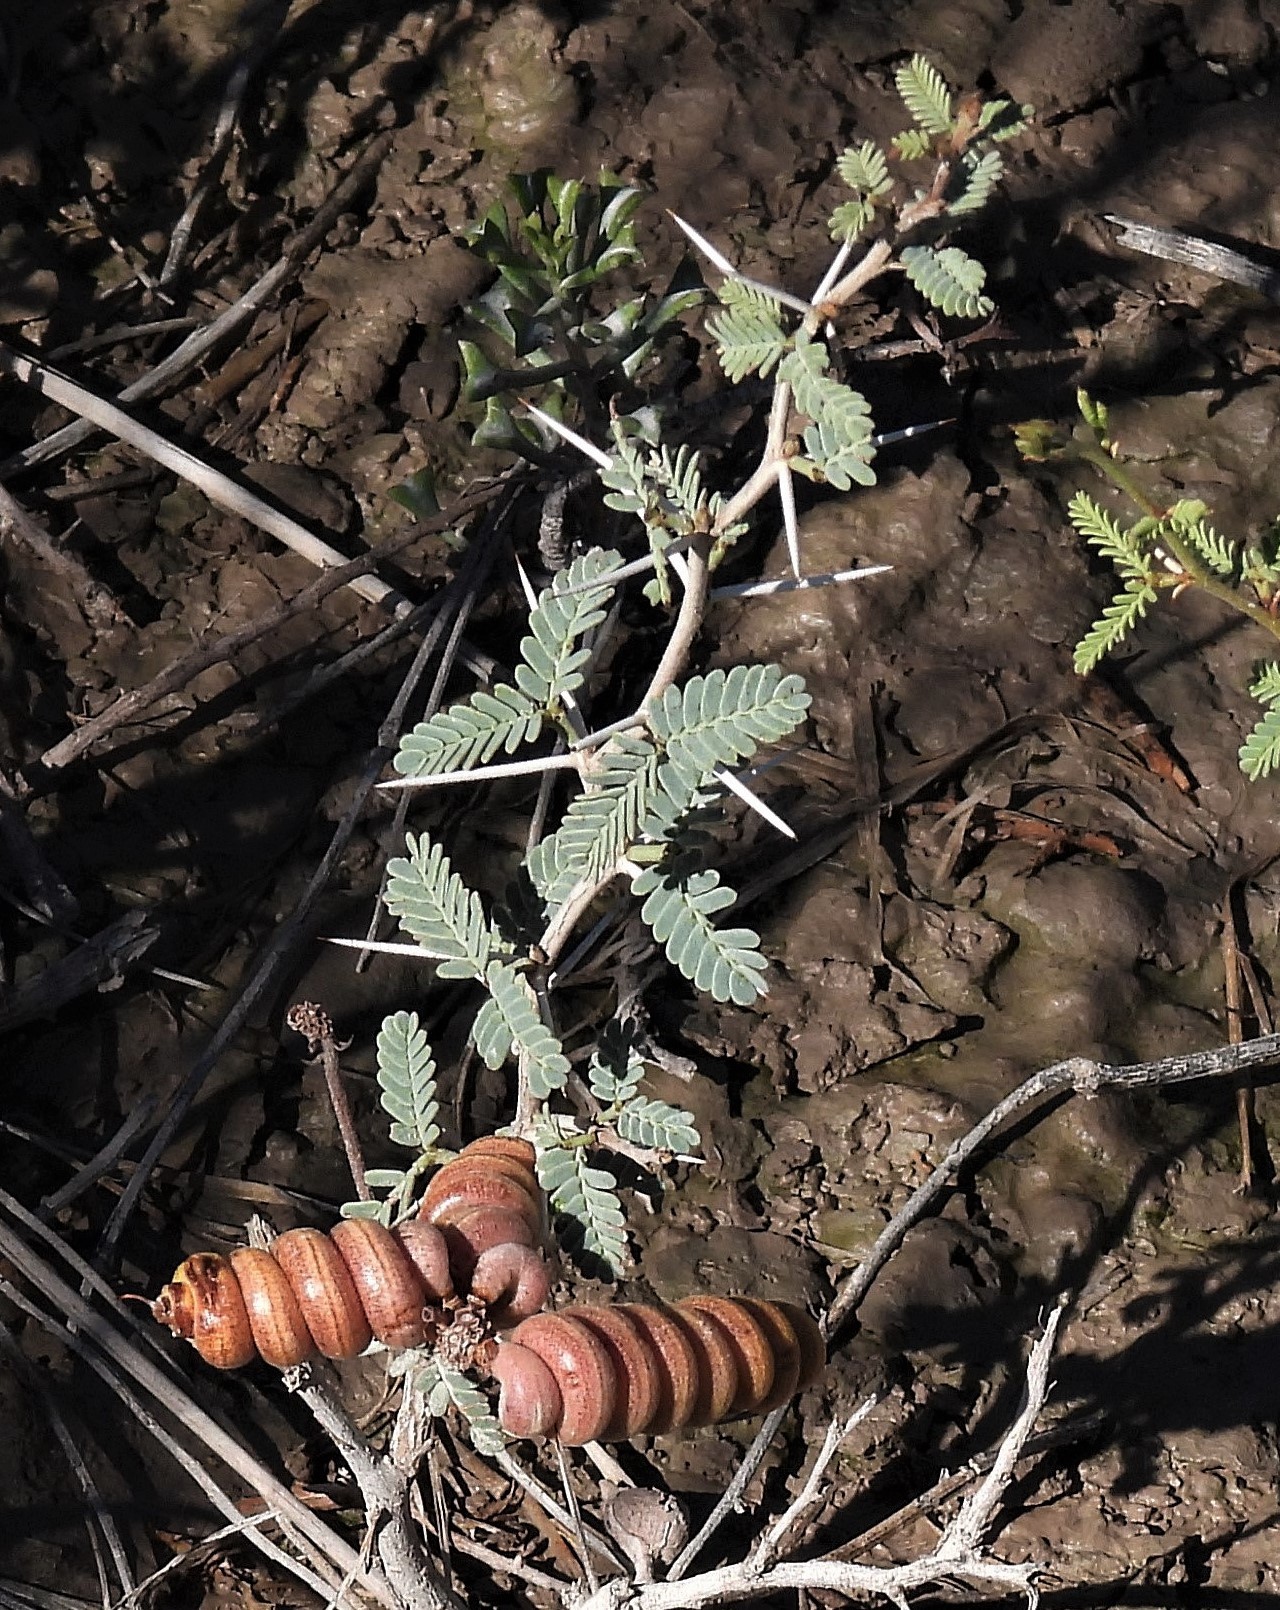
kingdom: Plantae
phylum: Tracheophyta
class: Magnoliopsida
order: Fabales
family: Fabaceae
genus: Prosopis
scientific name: Prosopis strombulifera
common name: Creeping mesquite
